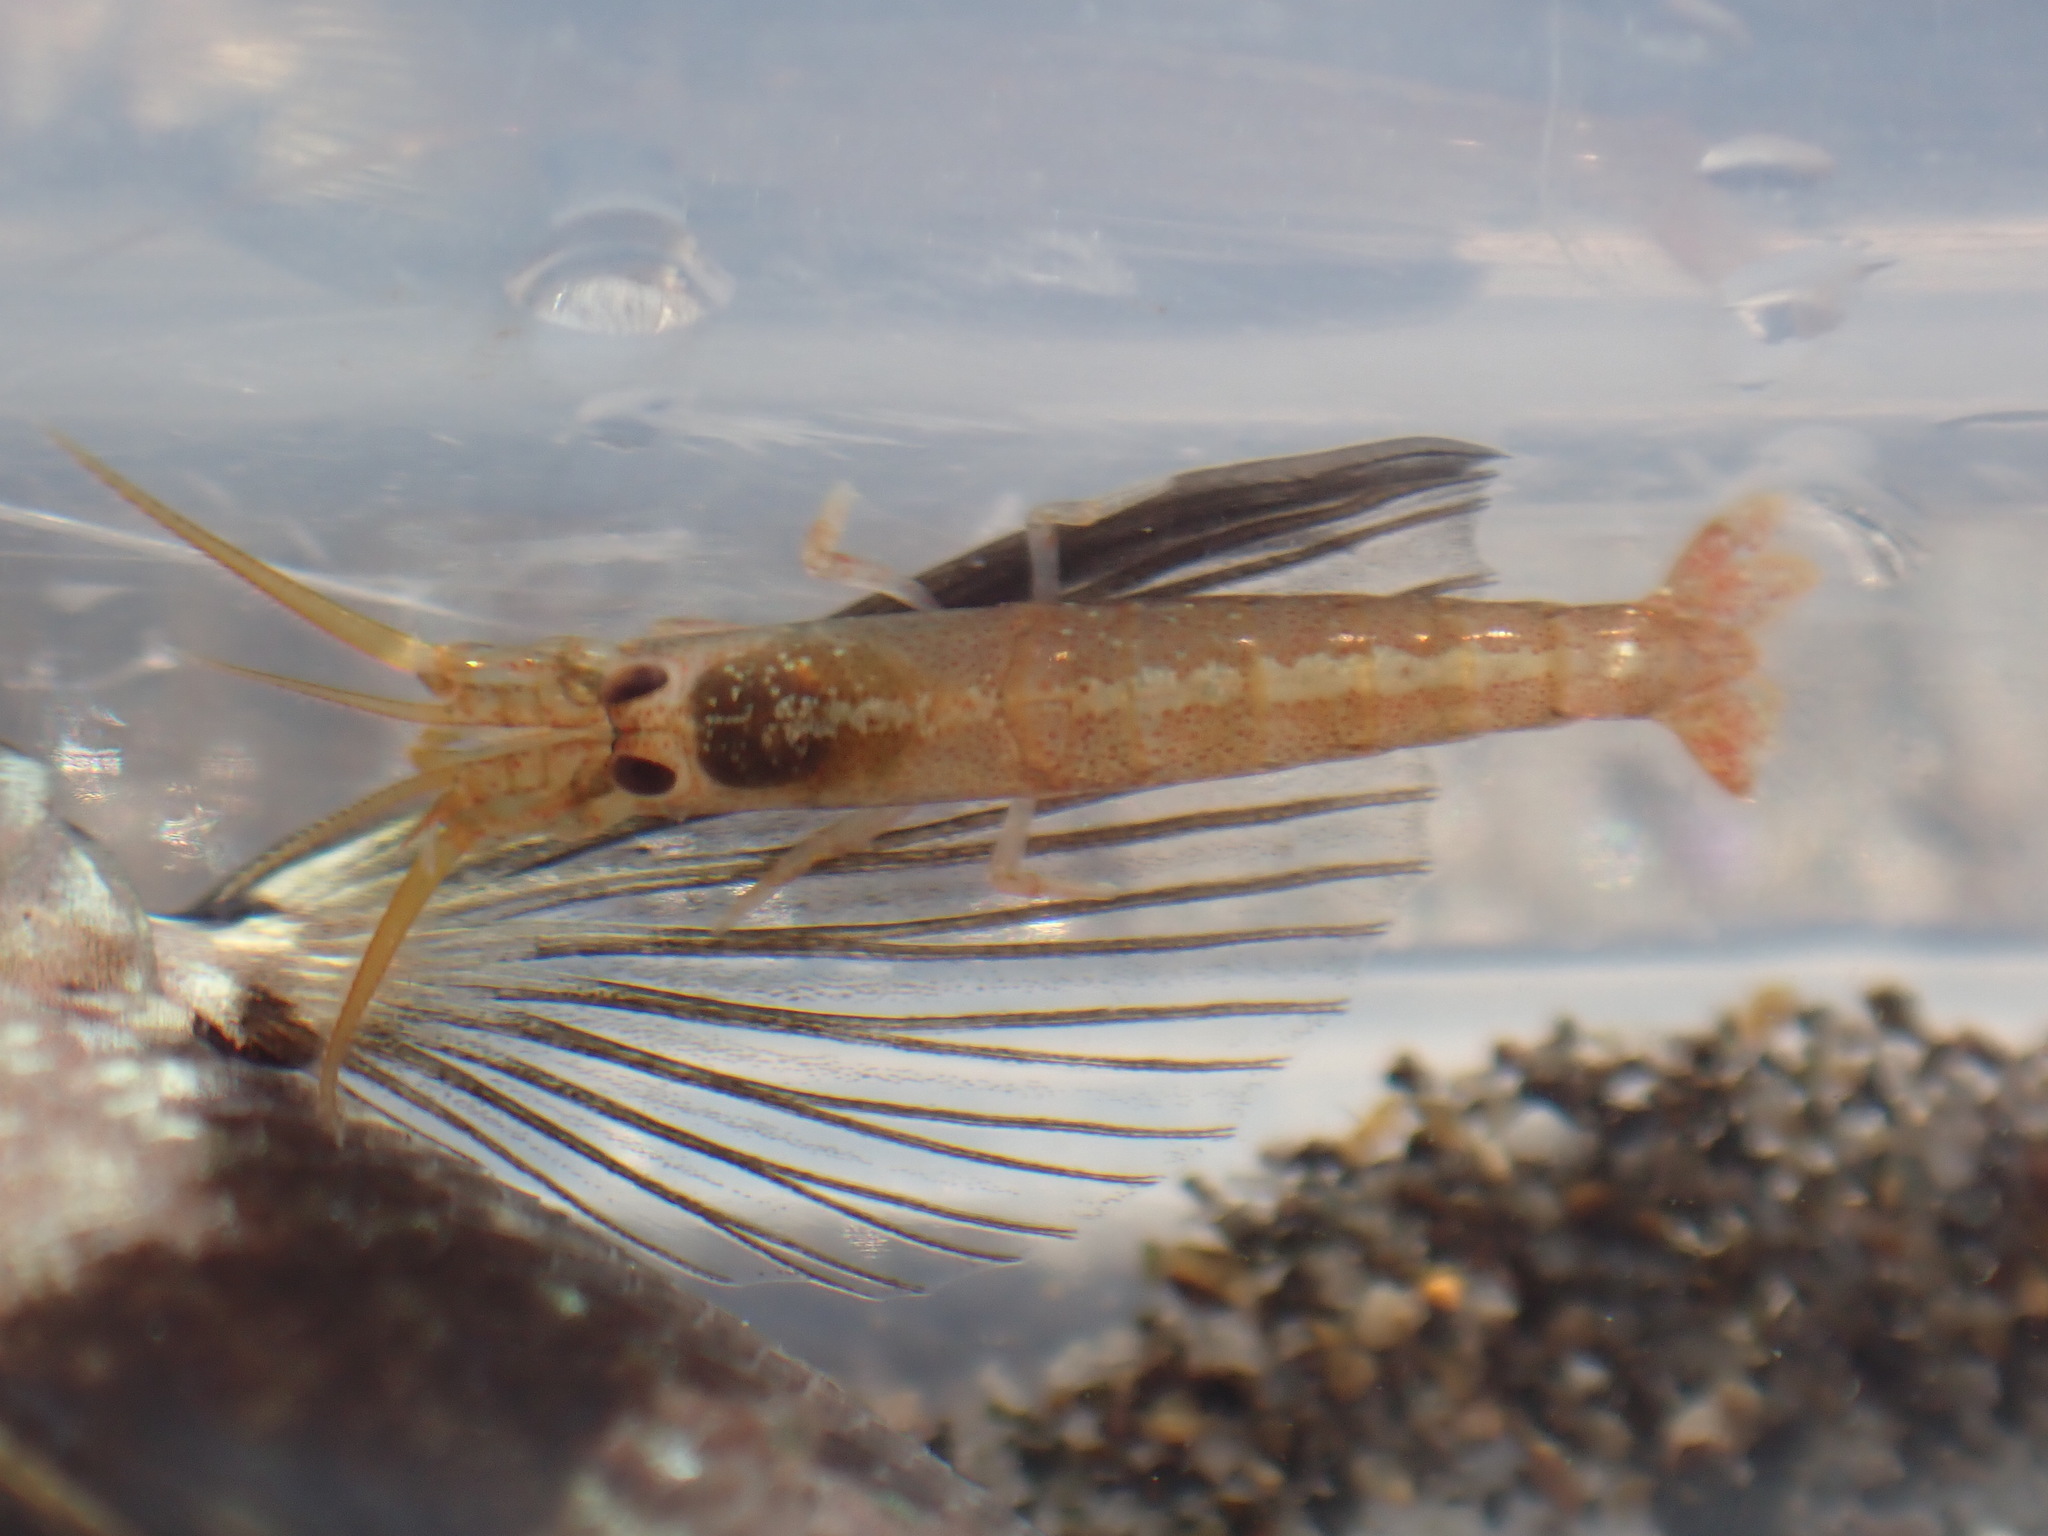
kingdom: Animalia
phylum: Arthropoda
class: Malacostraca
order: Decapoda
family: Alpheidae
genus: Betaeopsis
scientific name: Betaeopsis aequimanus
